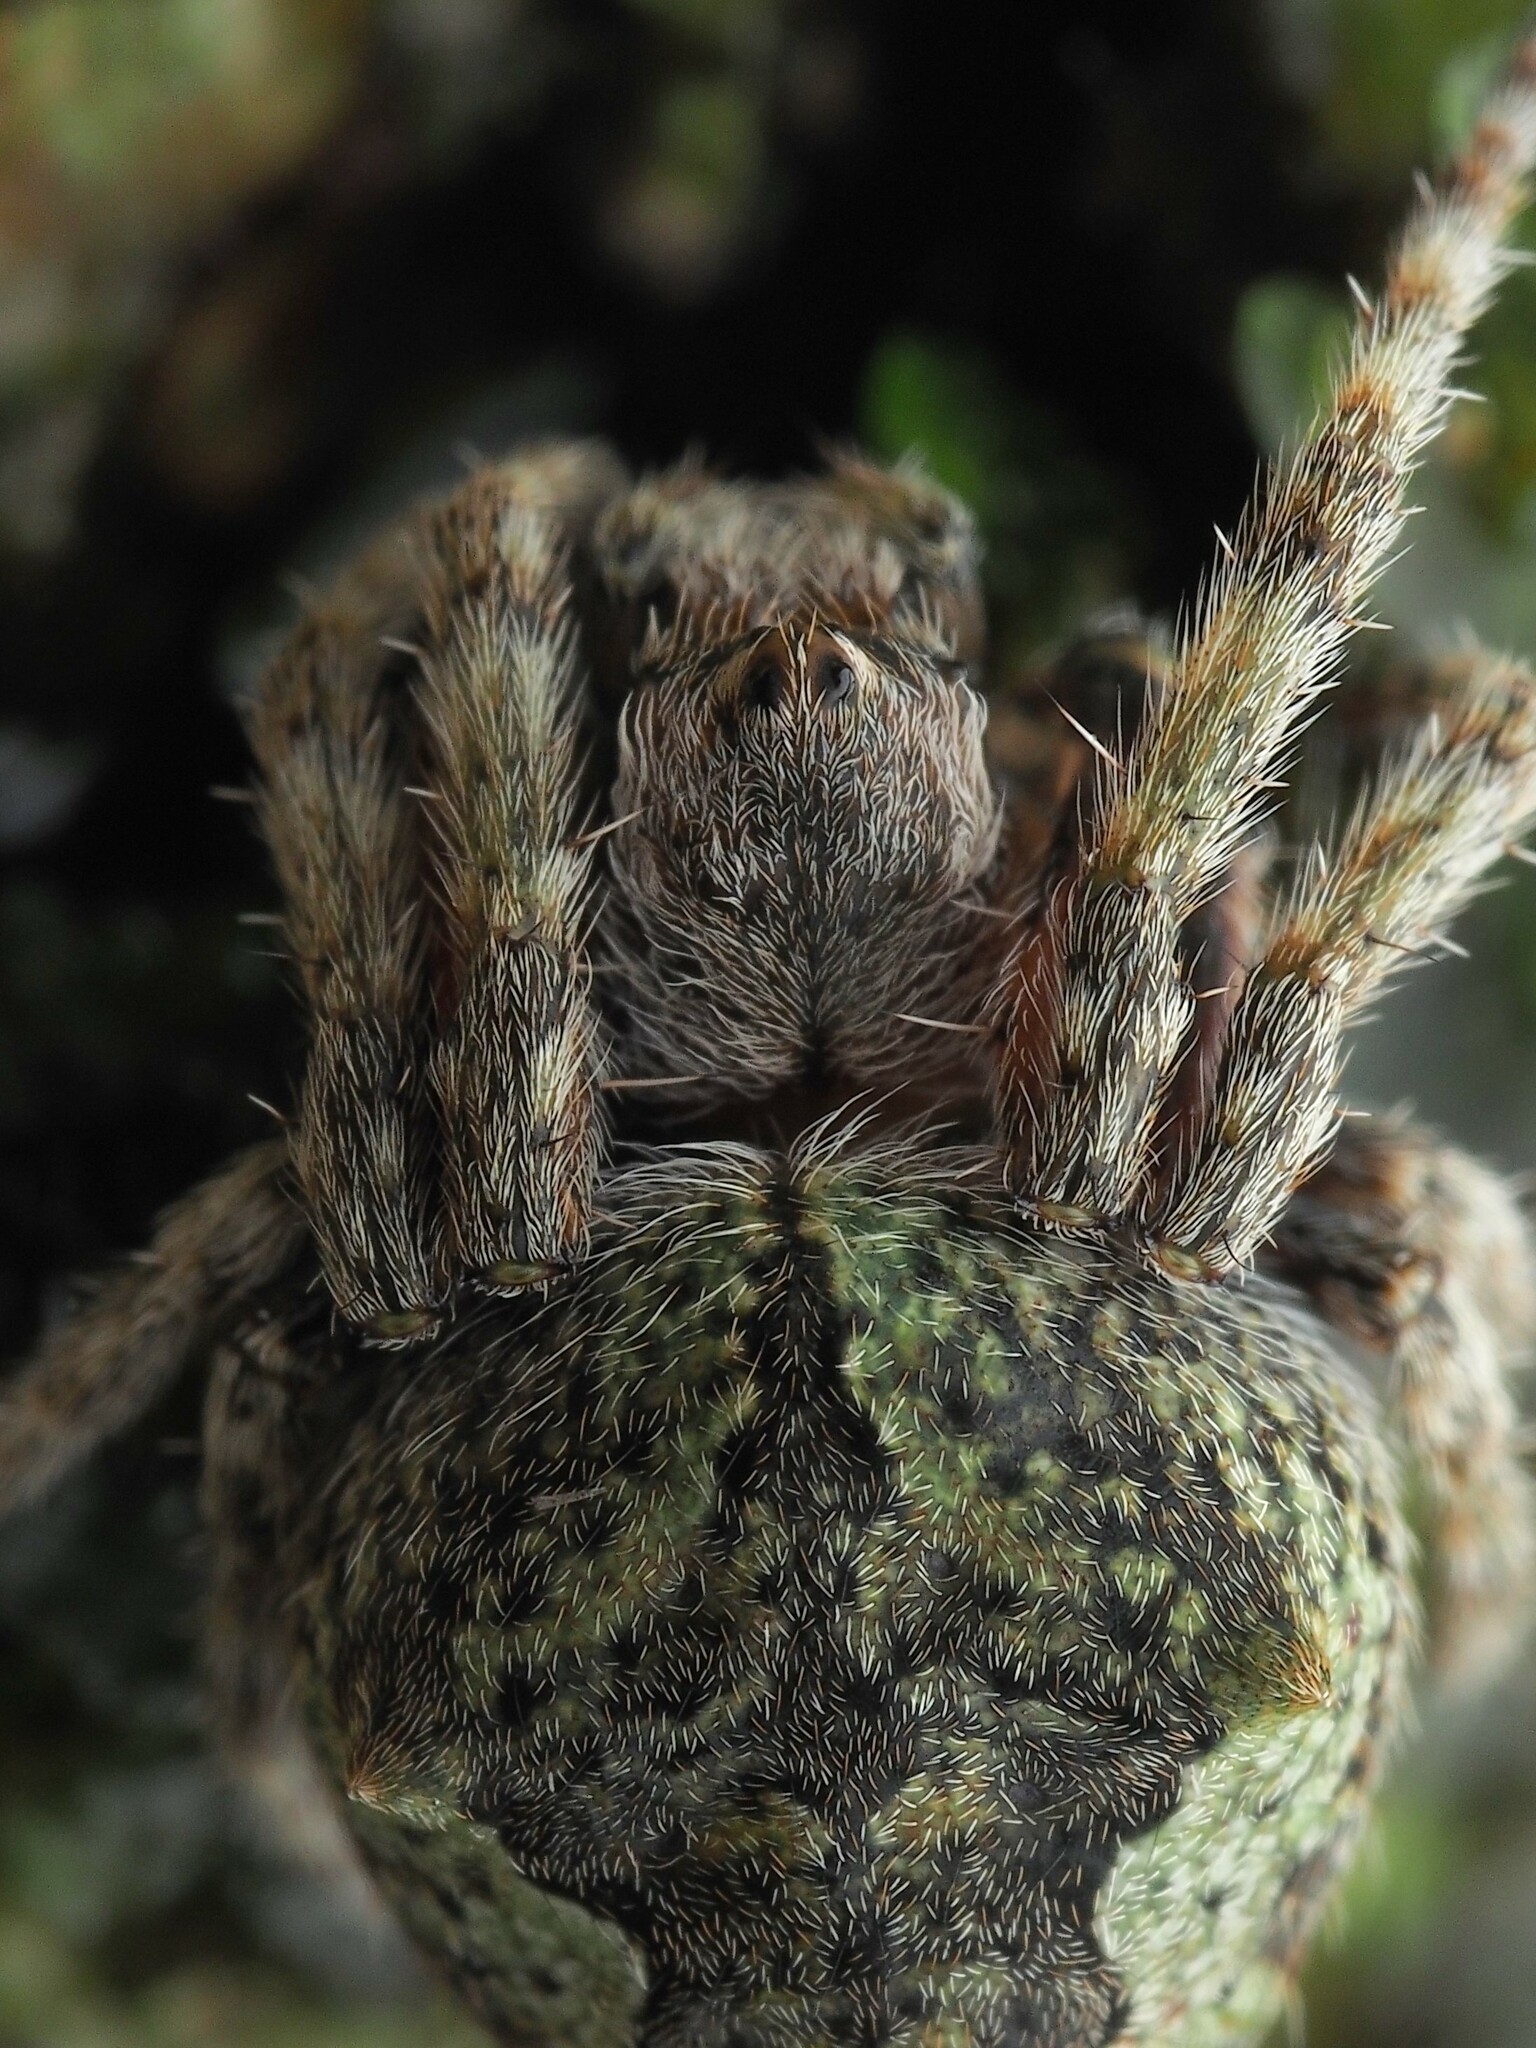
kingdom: Animalia
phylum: Arthropoda
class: Arachnida
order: Araneae
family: Araneidae
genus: Eriophora
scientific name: Eriophora pustulosa
